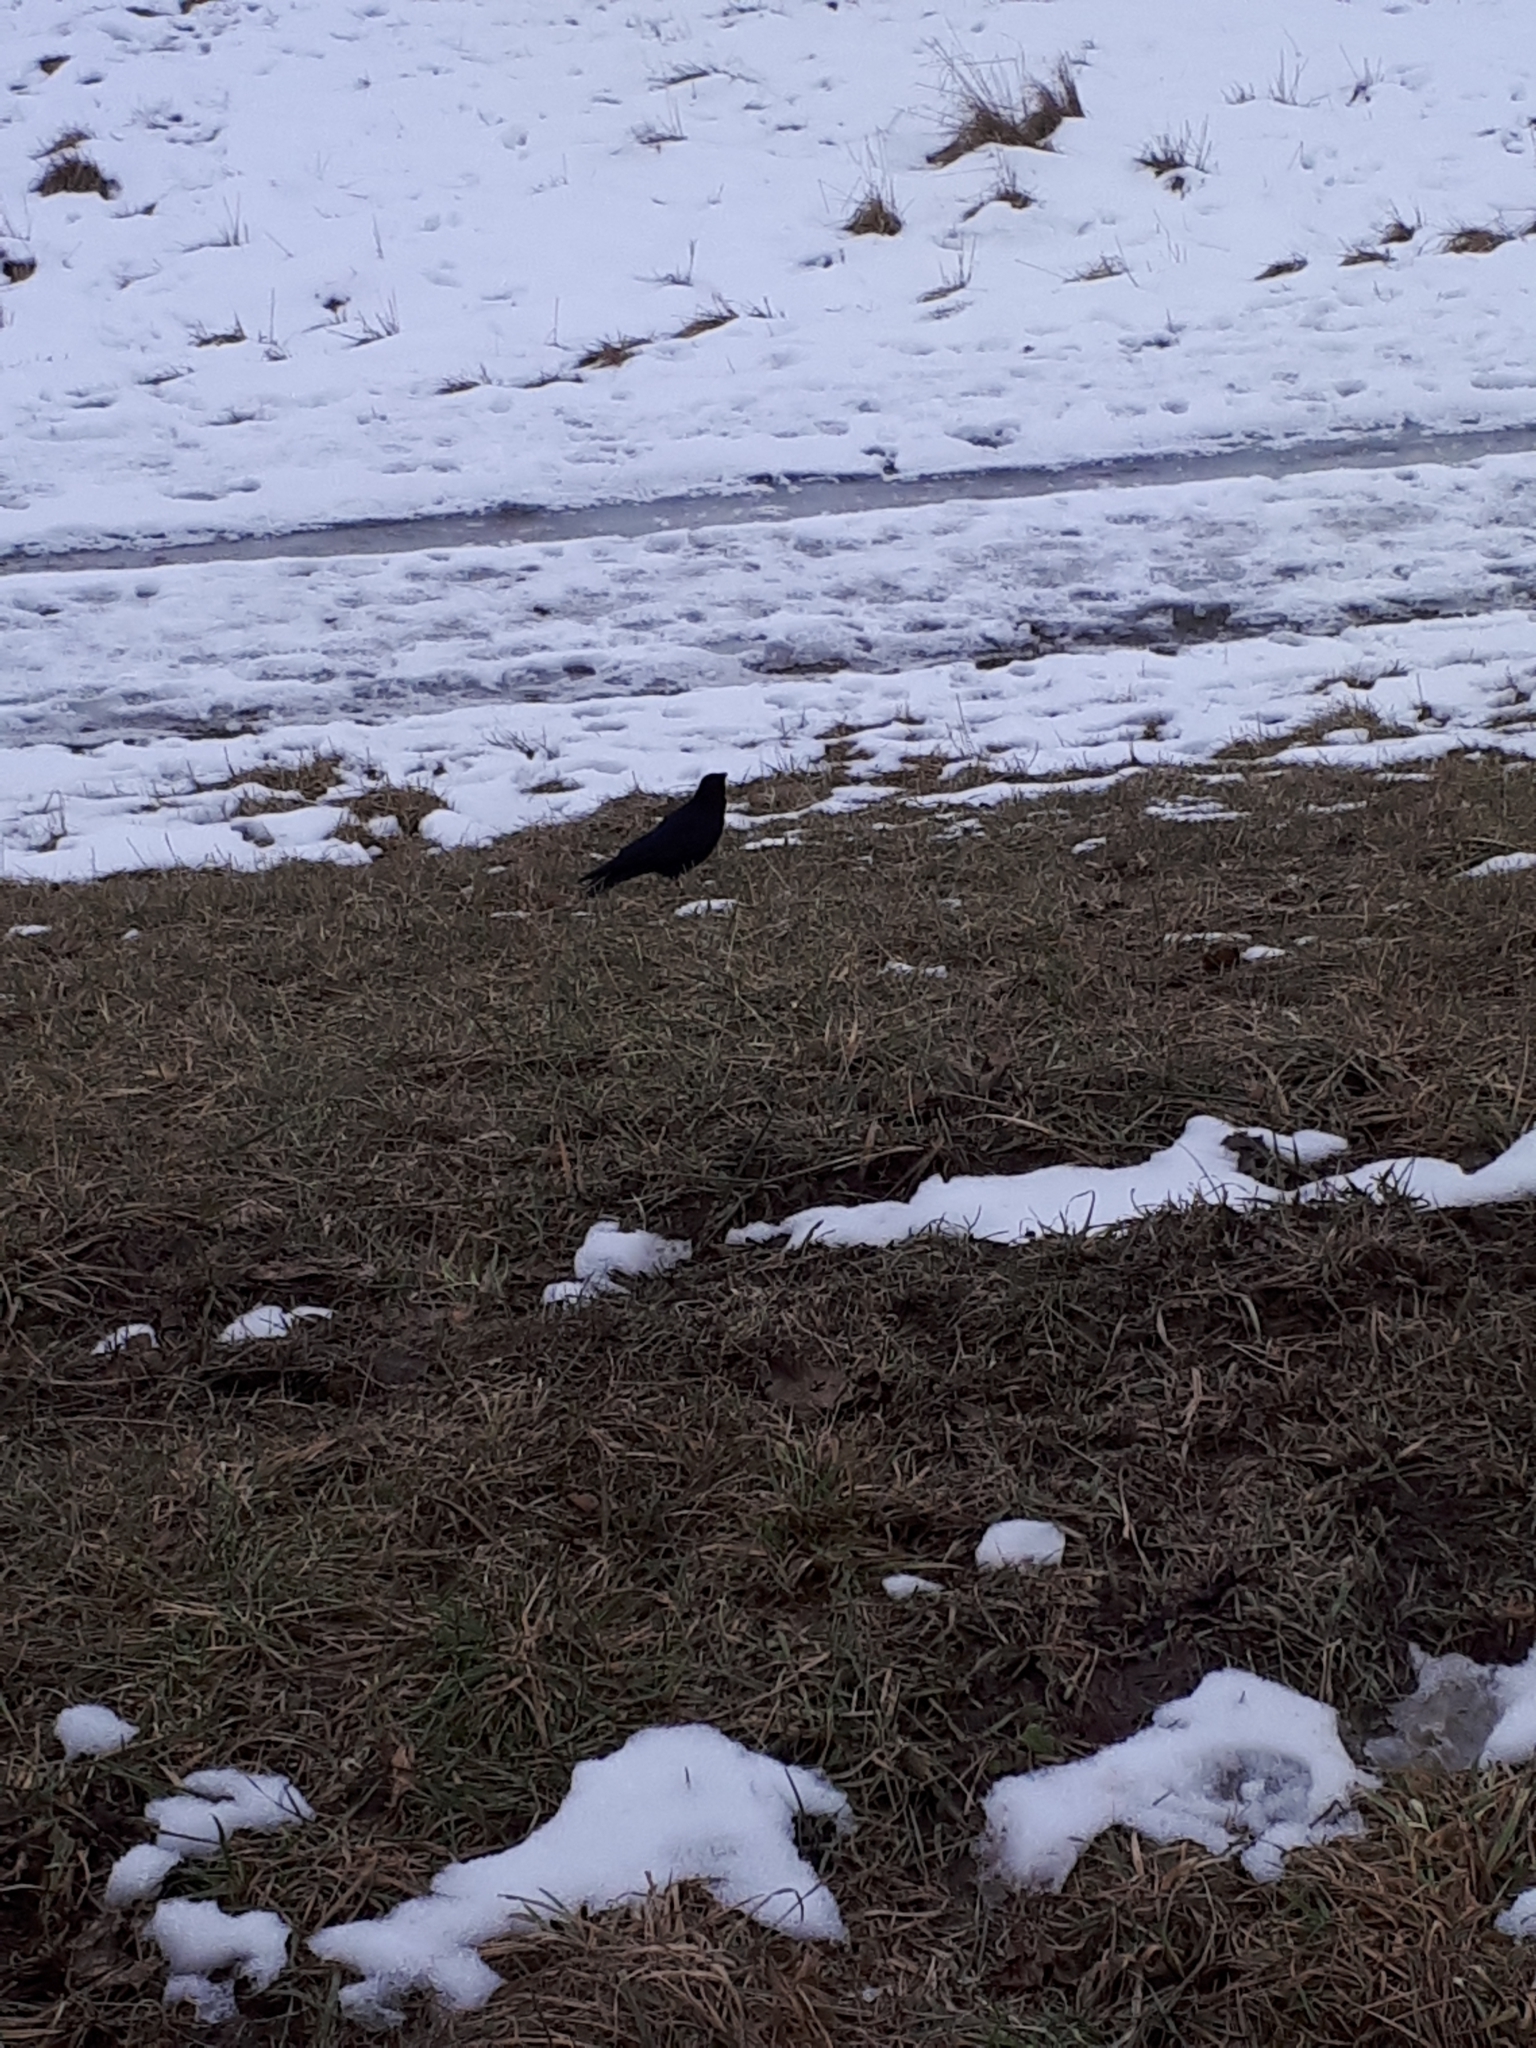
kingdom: Animalia
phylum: Chordata
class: Aves
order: Passeriformes
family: Corvidae
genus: Corvus
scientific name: Corvus corone
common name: Carrion crow
